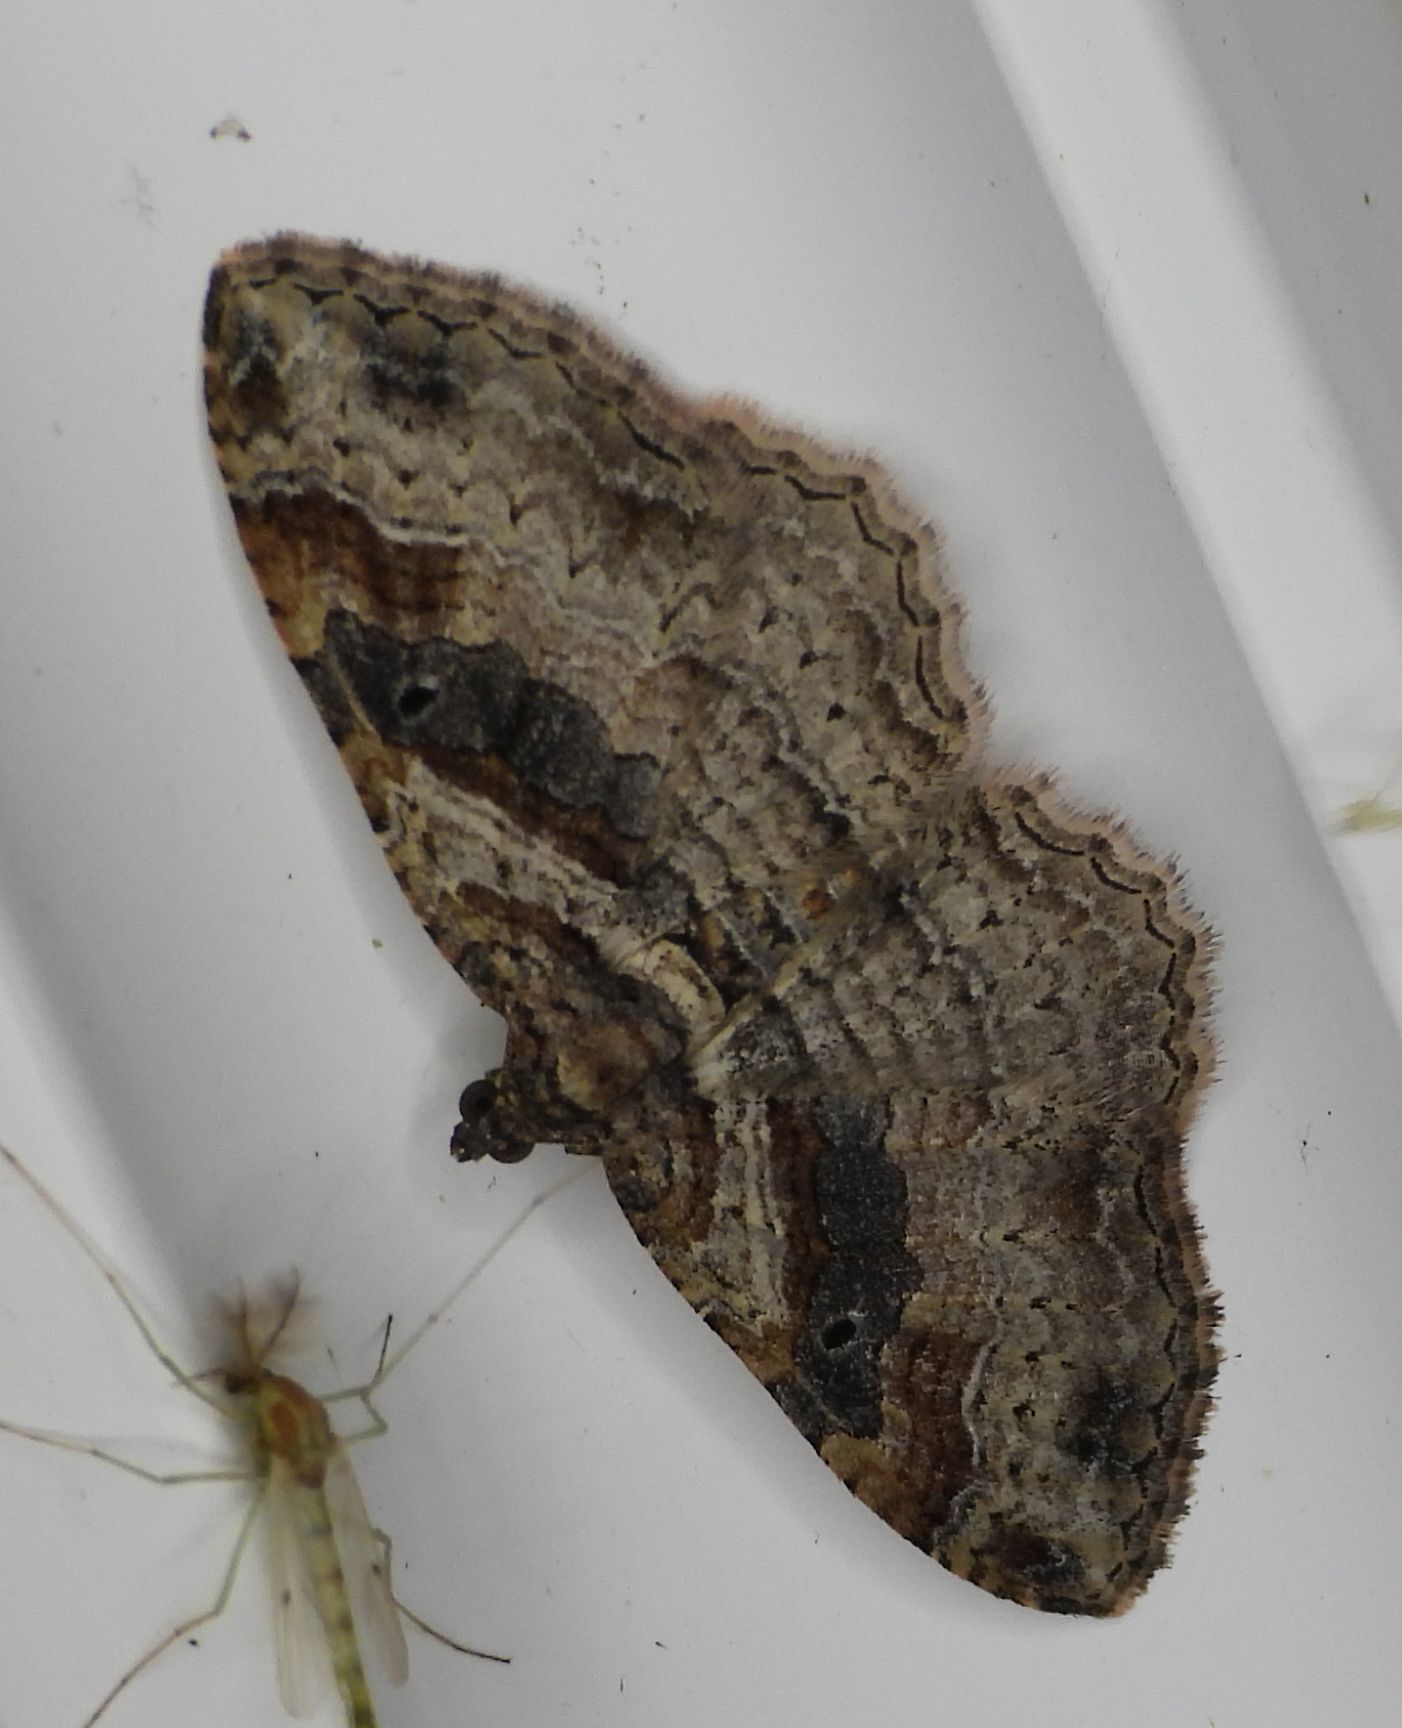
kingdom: Animalia
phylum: Arthropoda
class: Insecta
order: Lepidoptera
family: Geometridae
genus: Costaconvexa
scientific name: Costaconvexa centrostrigaria
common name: Bent-line carpet
